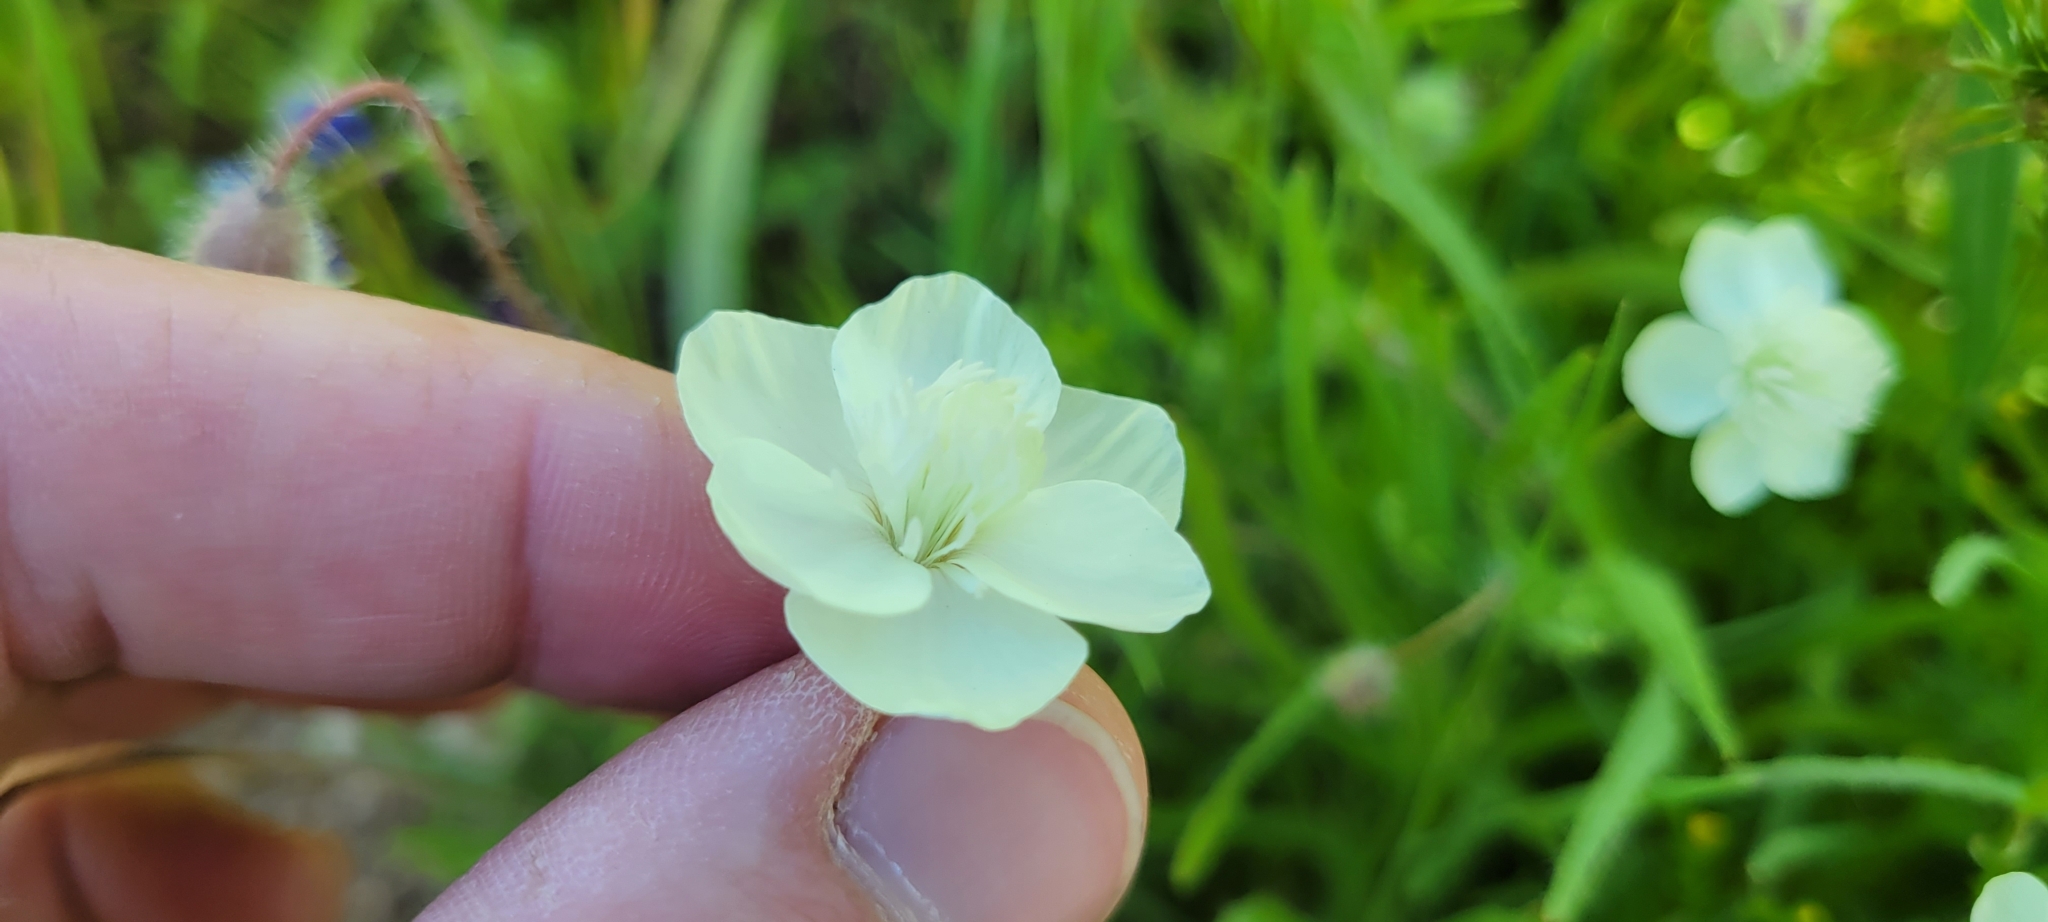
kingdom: Plantae
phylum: Tracheophyta
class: Magnoliopsida
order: Ranunculales
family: Papaveraceae
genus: Platystemon
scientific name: Platystemon californicus
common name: Cream-cups
